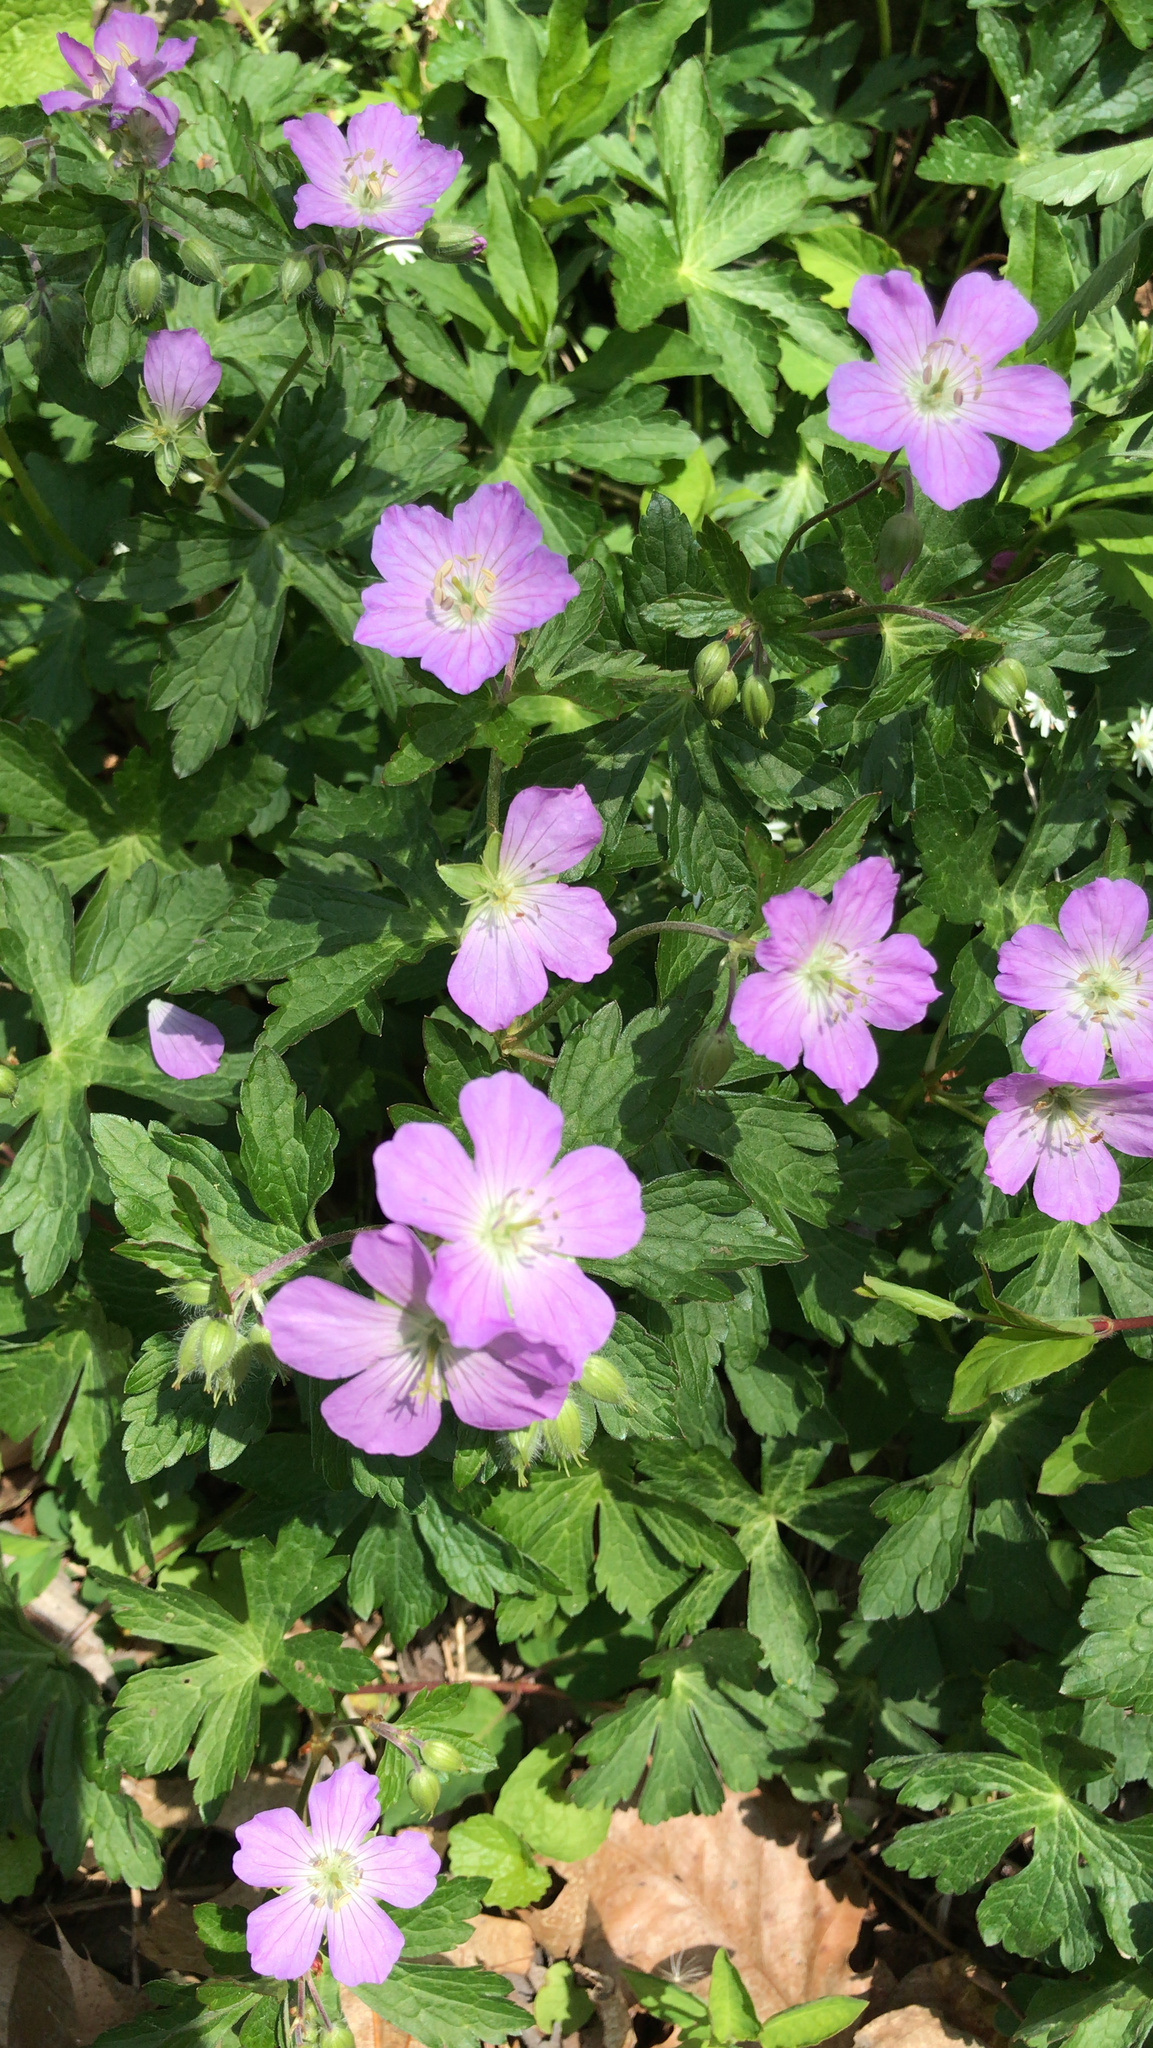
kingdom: Plantae
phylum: Tracheophyta
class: Magnoliopsida
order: Geraniales
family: Geraniaceae
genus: Geranium
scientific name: Geranium maculatum
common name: Spotted geranium
